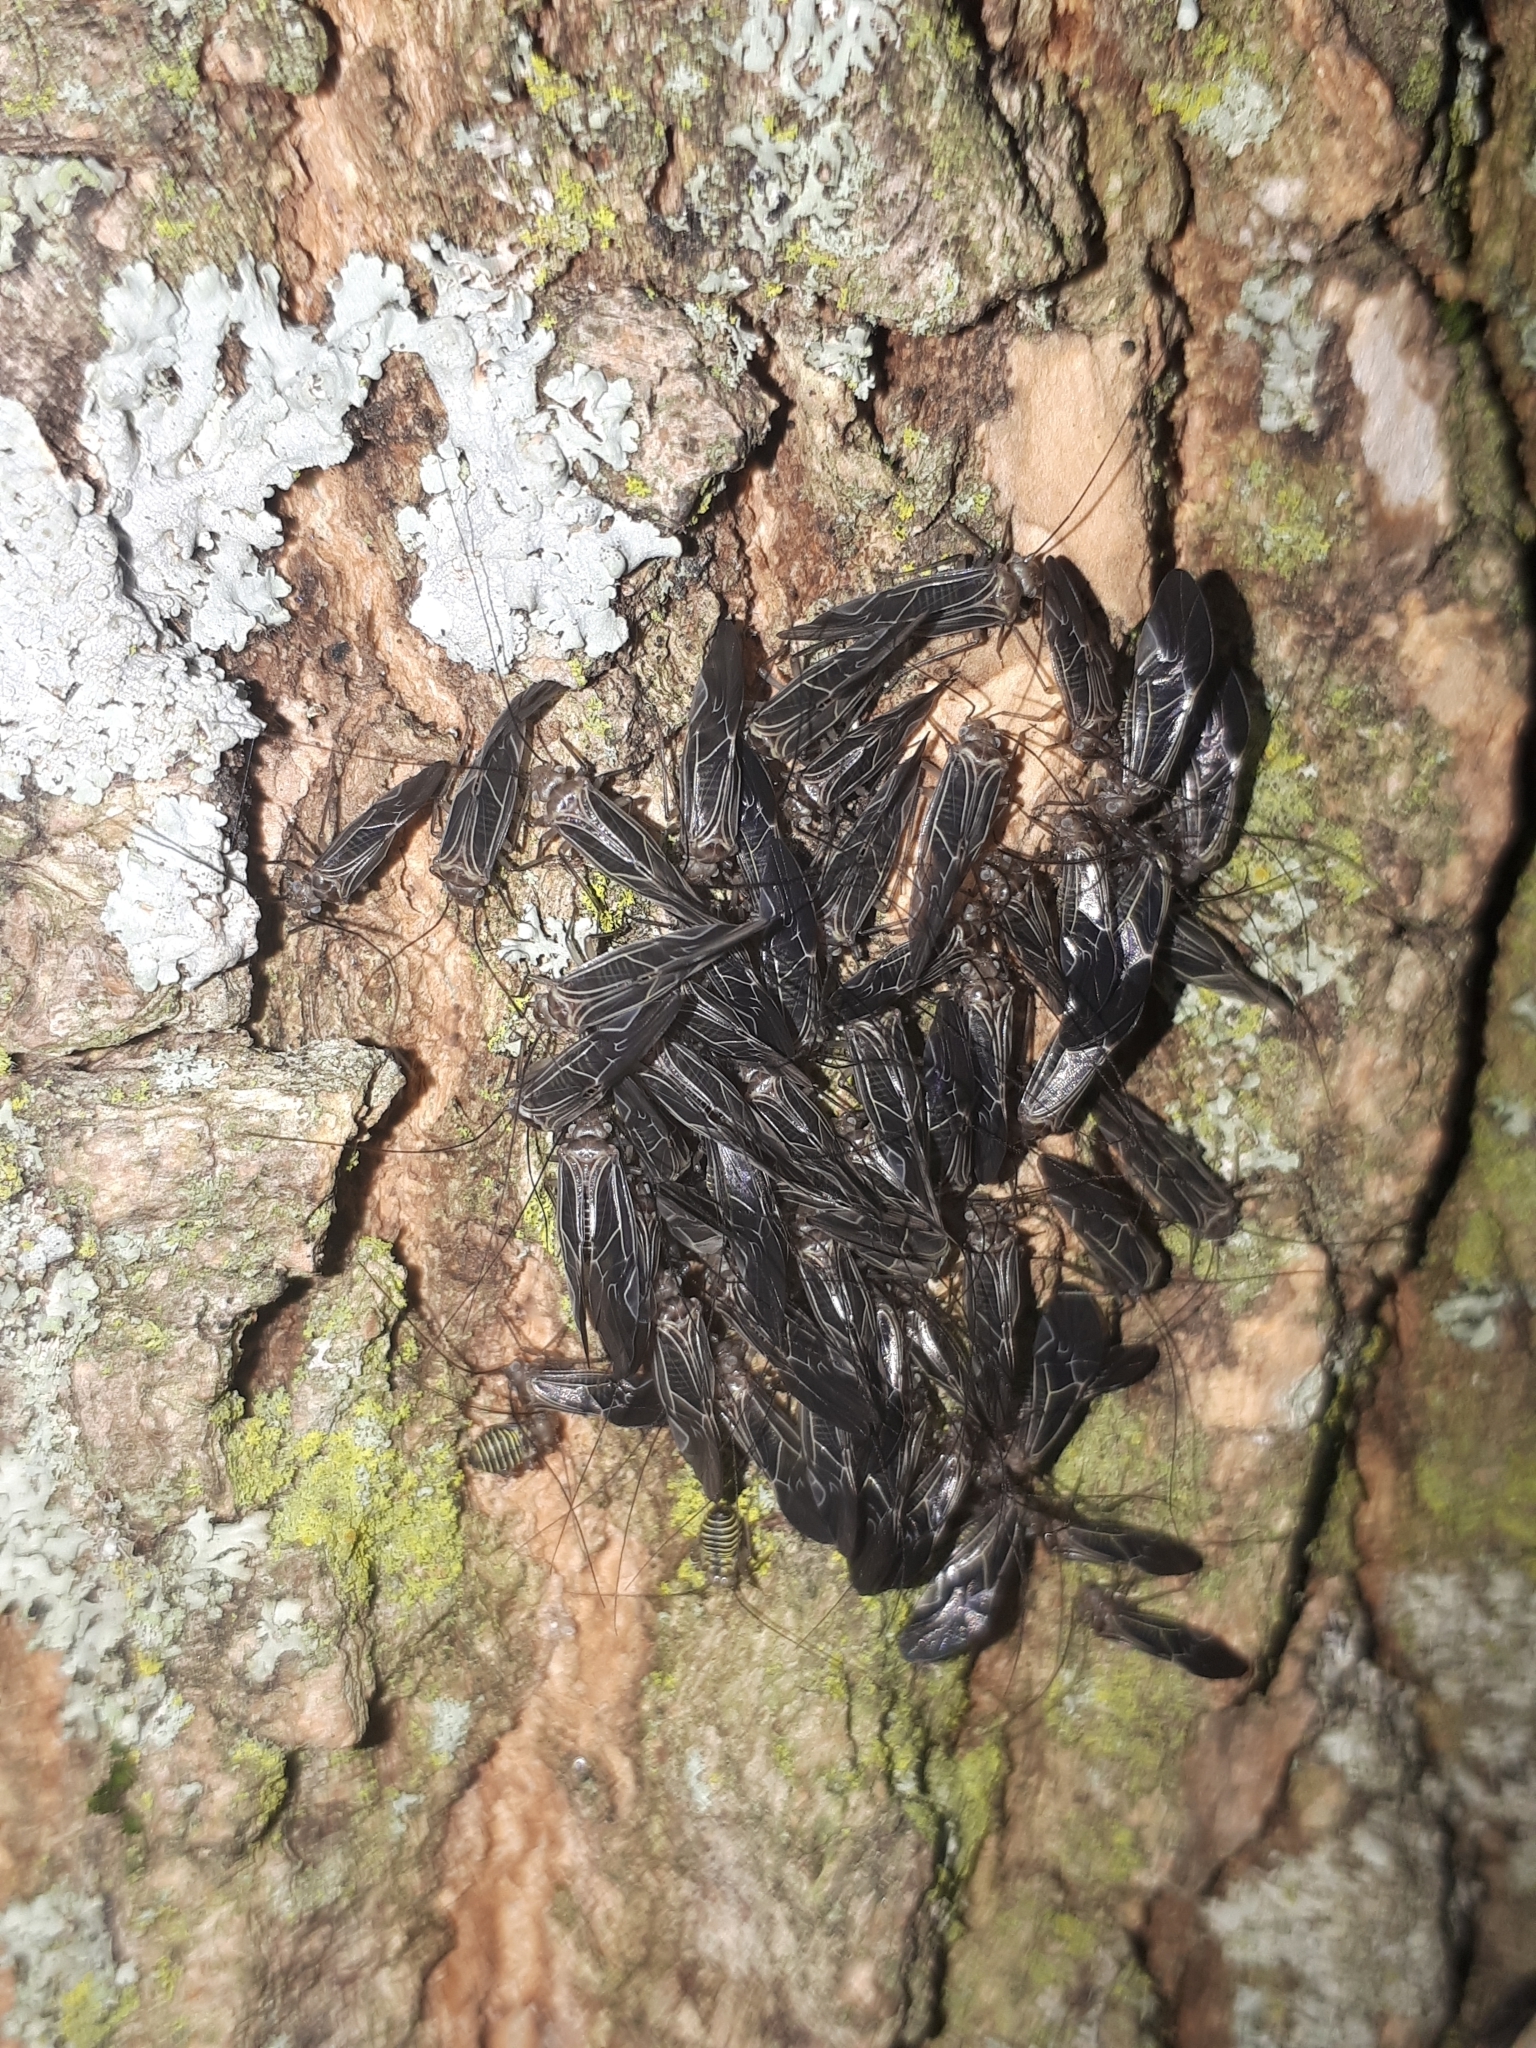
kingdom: Animalia
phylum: Arthropoda
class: Insecta
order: Psocodea
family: Psocidae
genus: Cerastipsocus
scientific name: Cerastipsocus venosus
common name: Tree cattle
